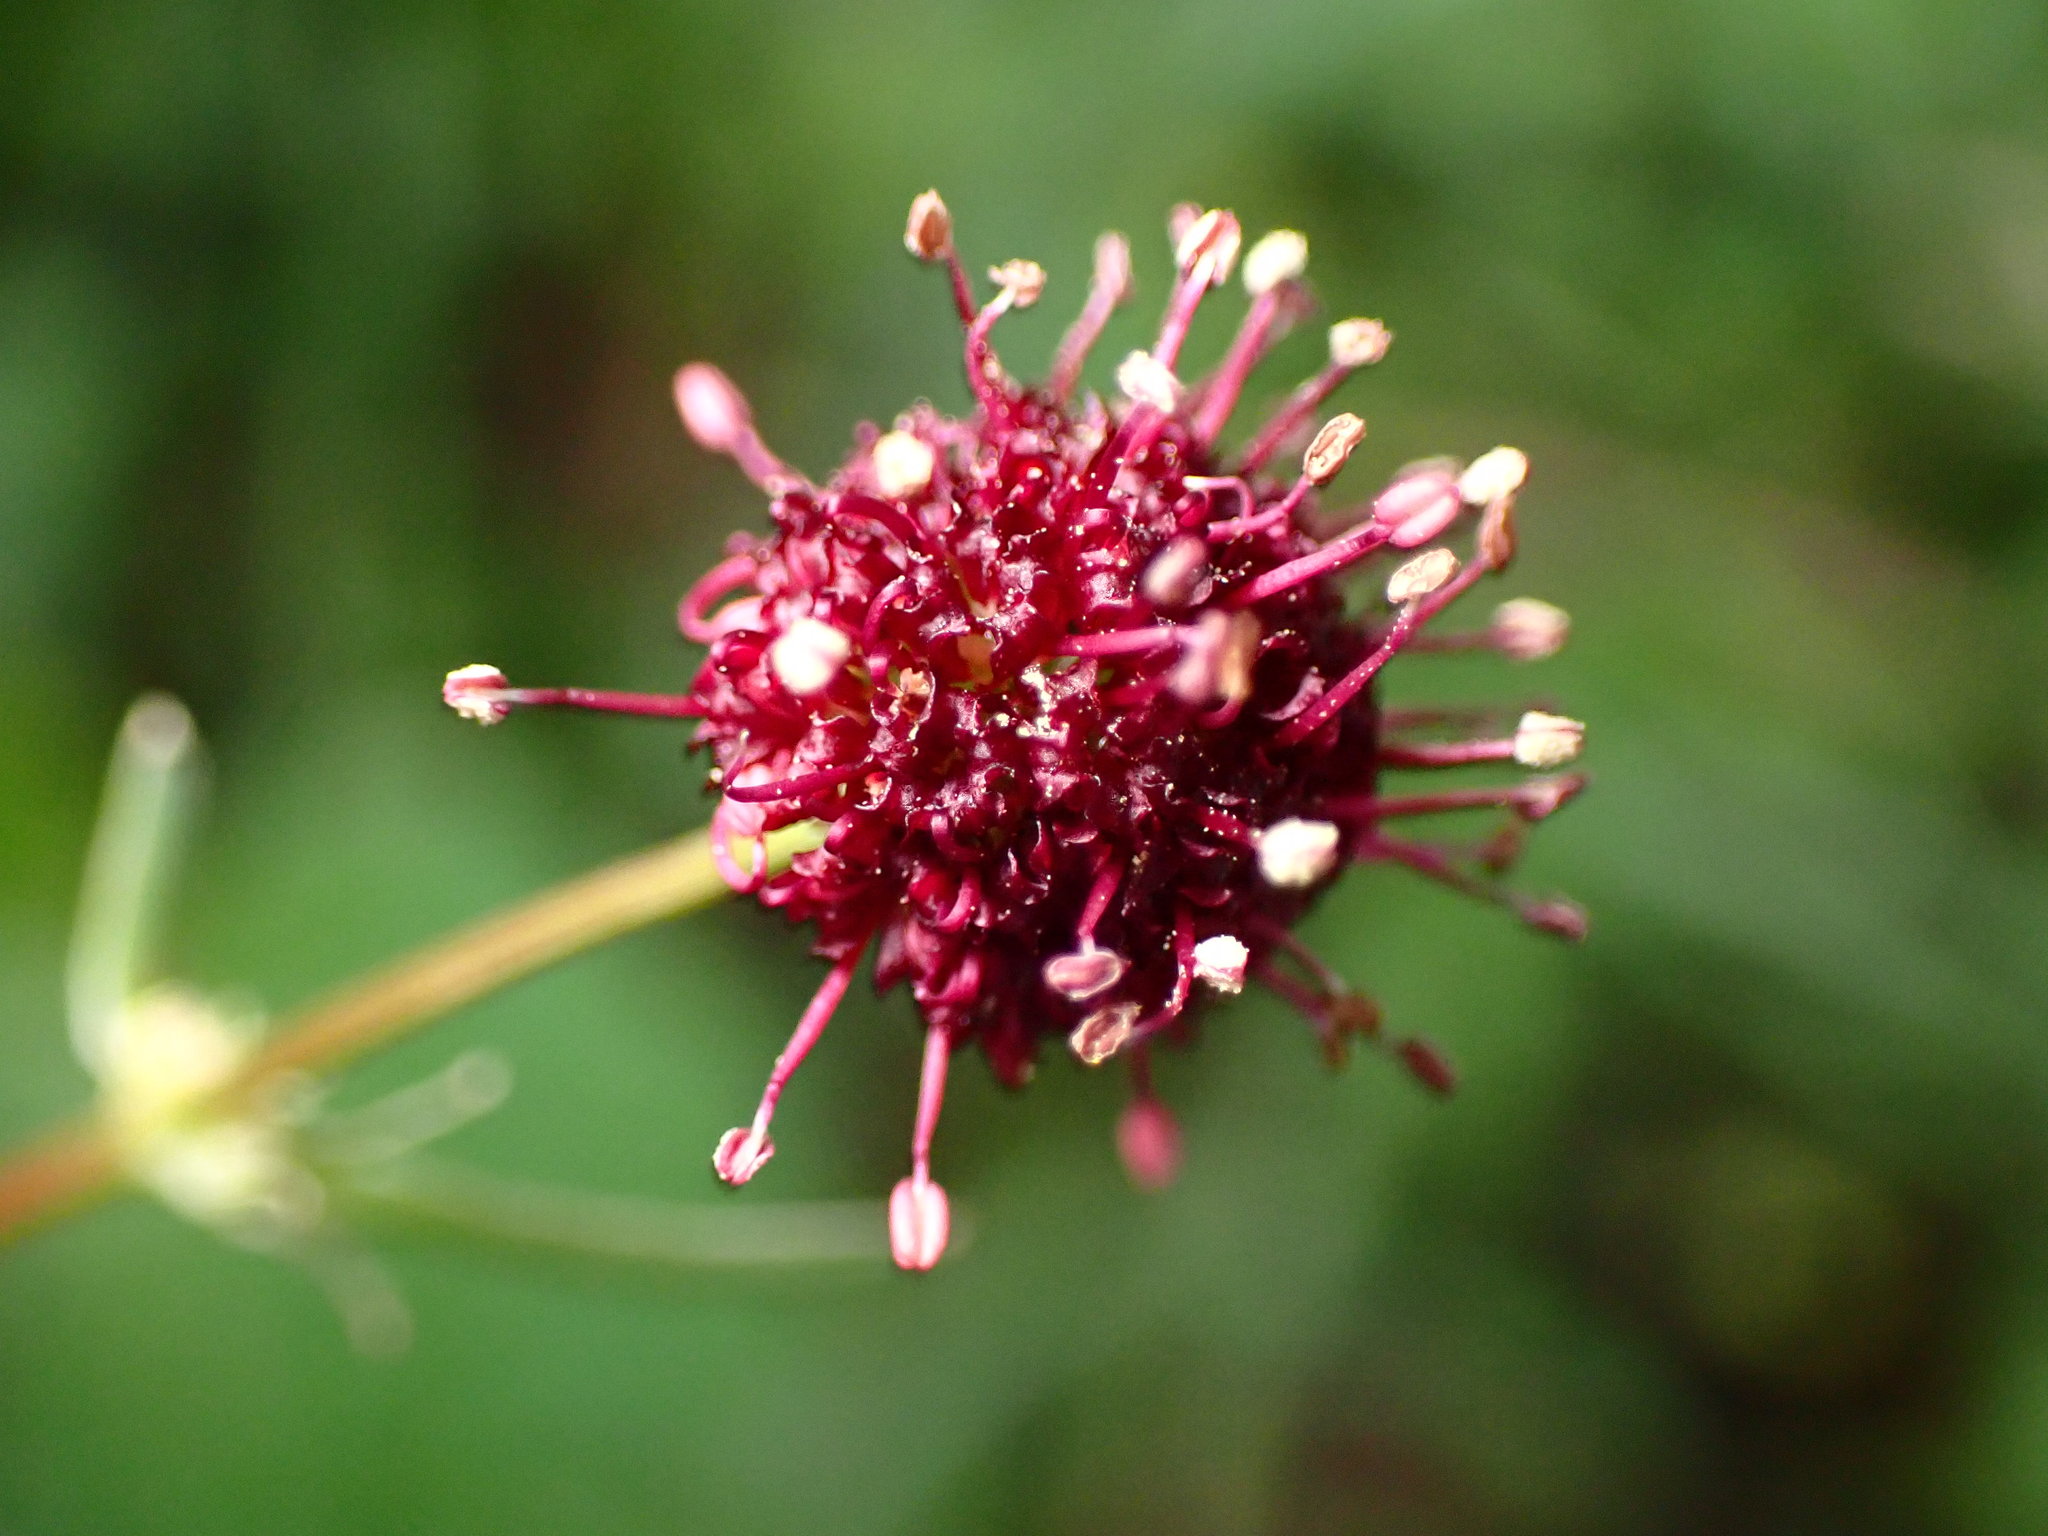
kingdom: Plantae
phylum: Tracheophyta
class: Magnoliopsida
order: Apiales
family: Apiaceae
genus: Sanicula
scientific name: Sanicula bipinnatifida
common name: Shoe-buttons
